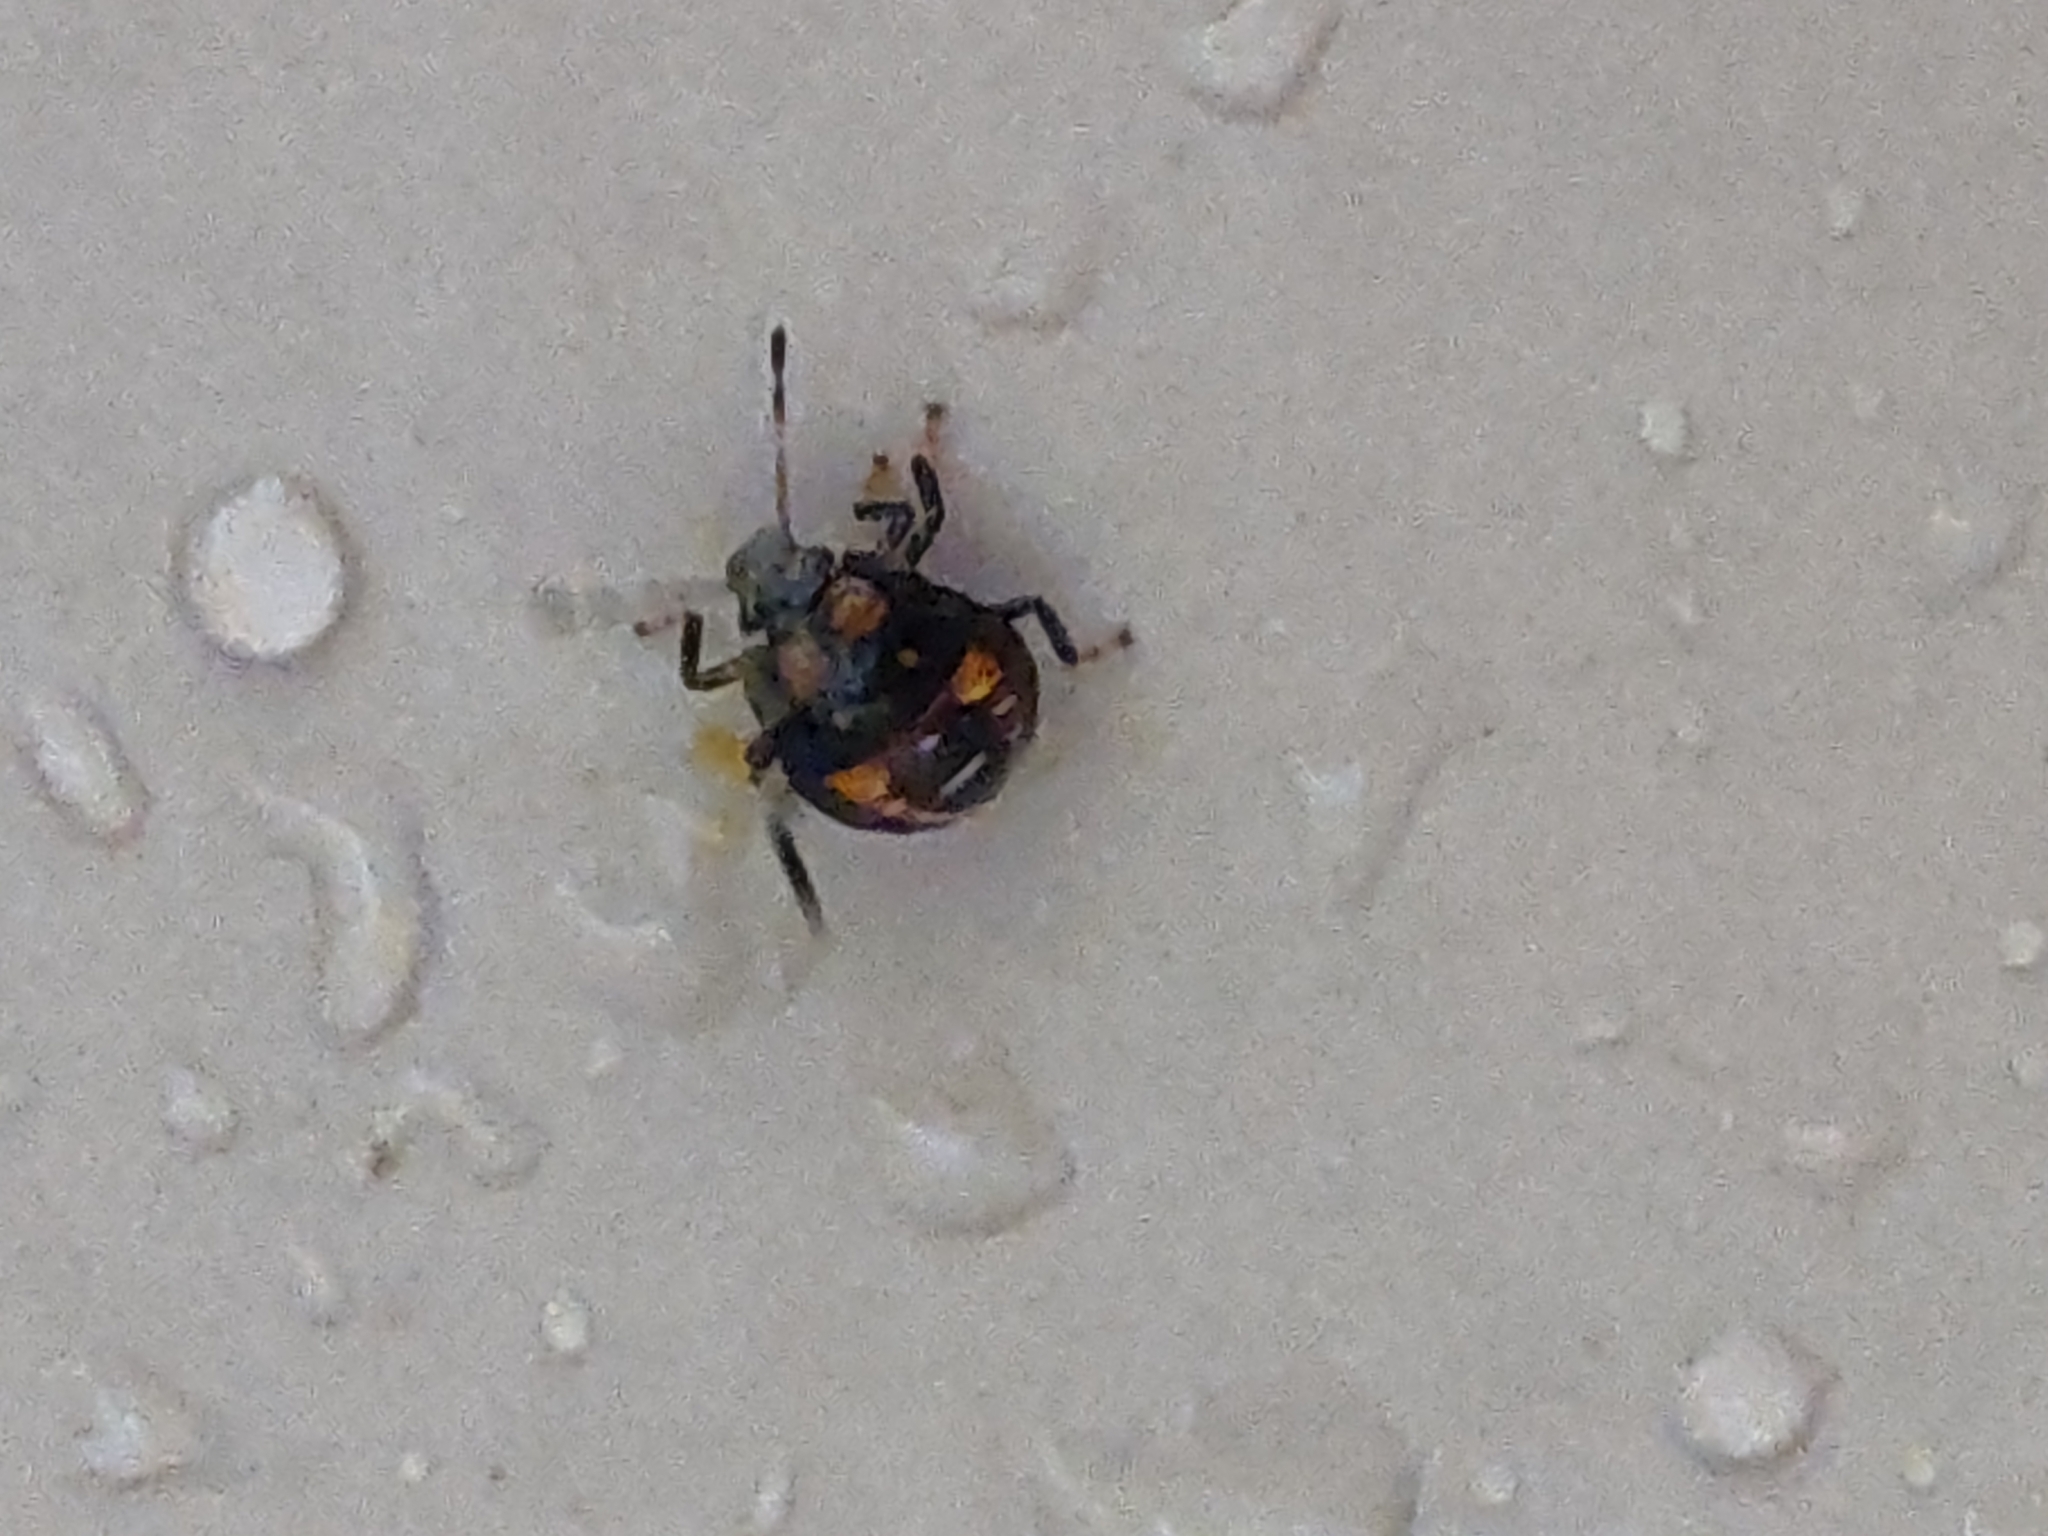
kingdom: Animalia
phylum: Arthropoda
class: Insecta
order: Hemiptera
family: Pentatomidae
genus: Podisus
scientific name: Podisus
